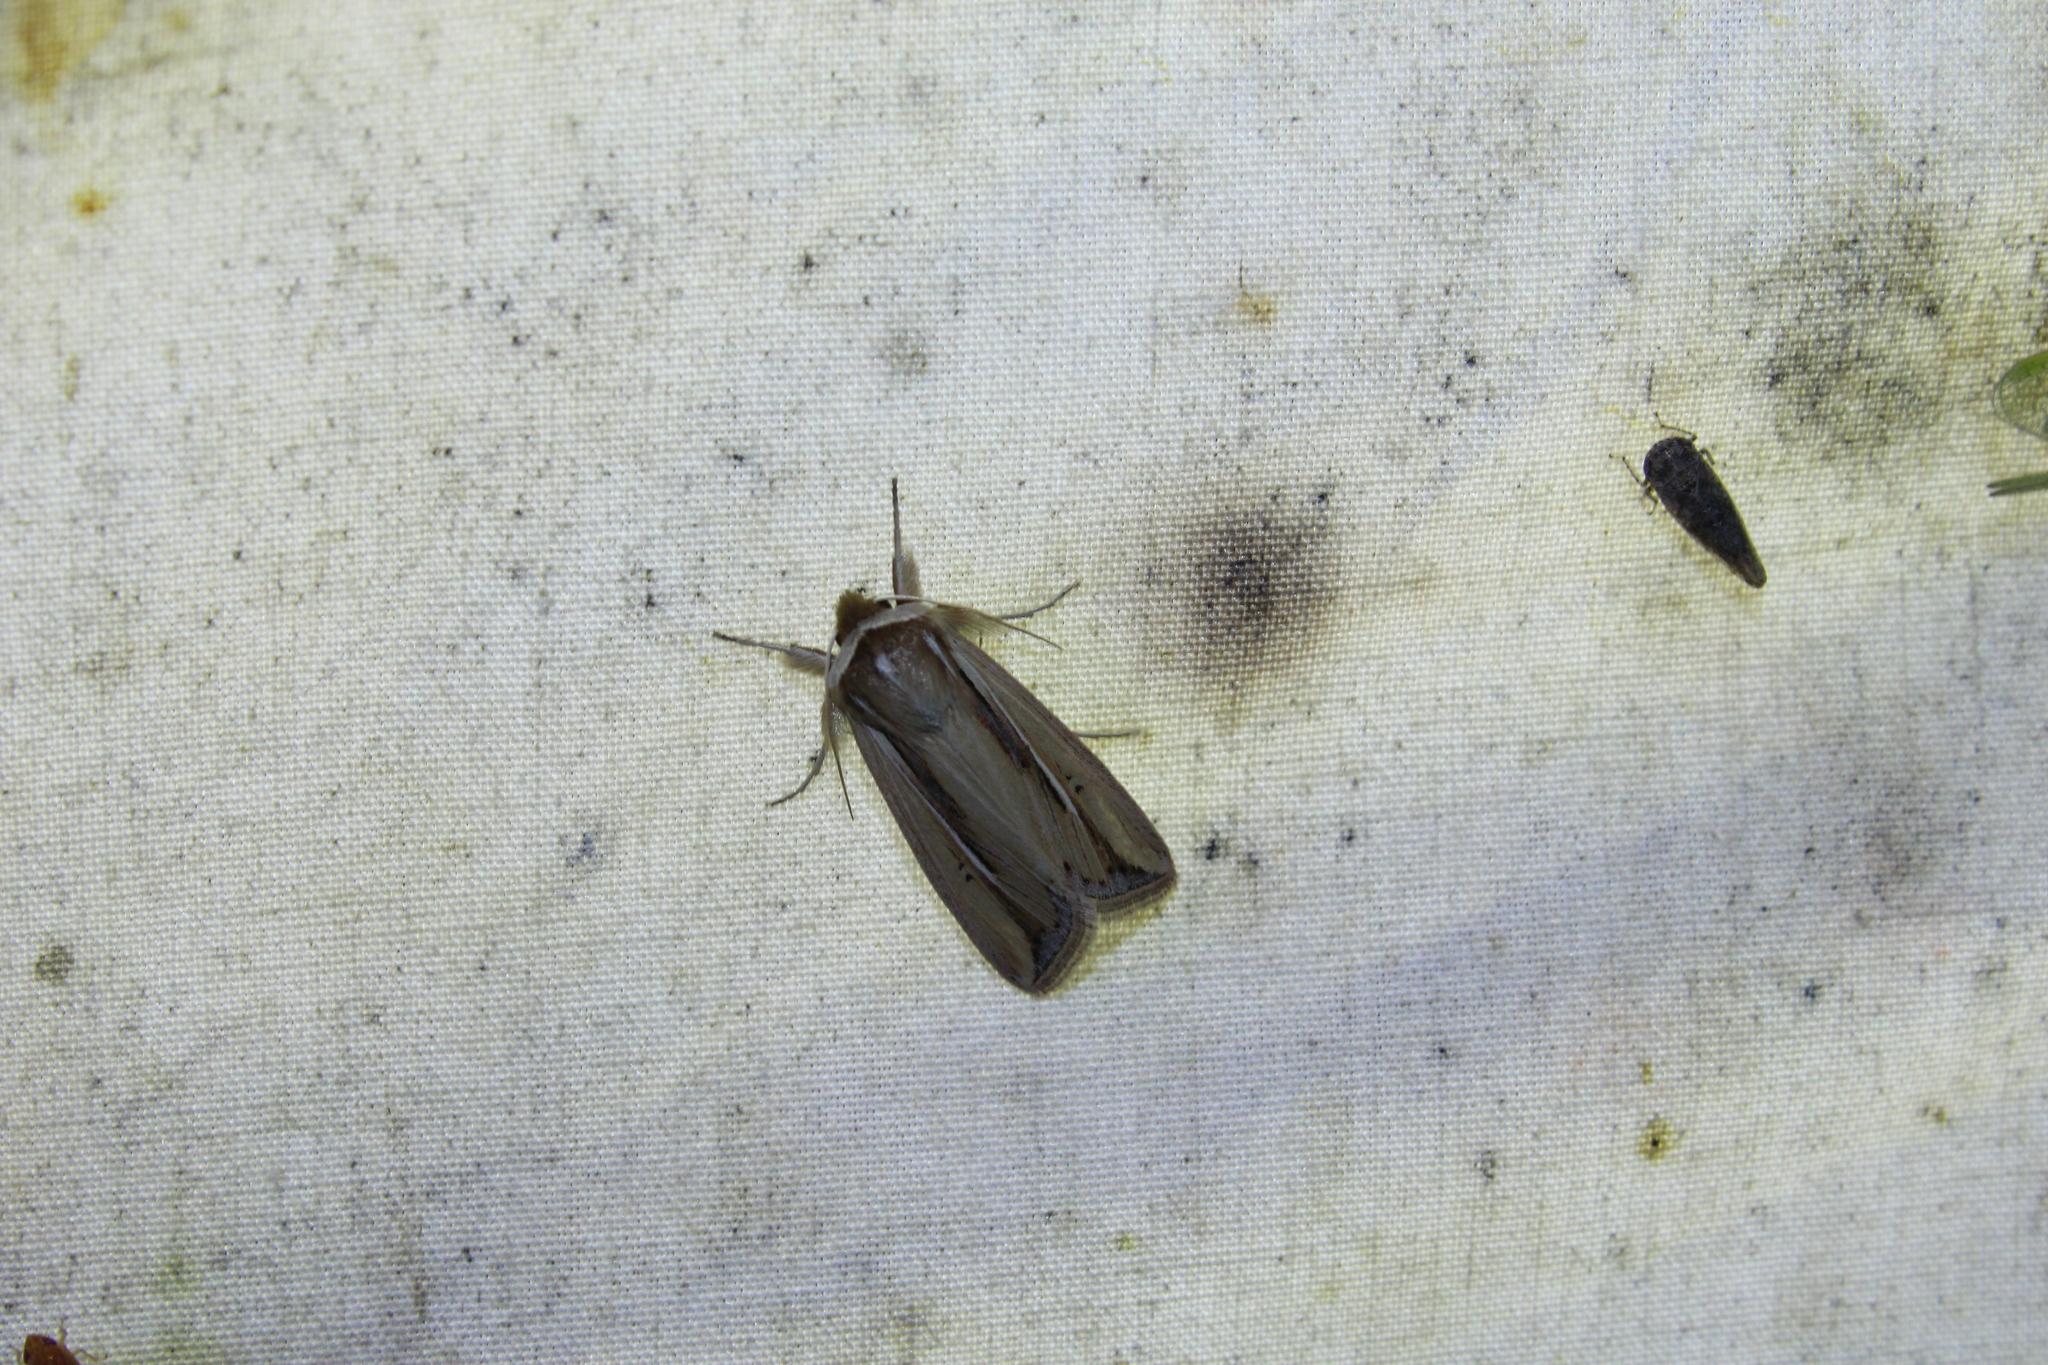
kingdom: Animalia
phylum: Arthropoda
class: Insecta
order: Lepidoptera
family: Noctuidae
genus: Dargida
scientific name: Dargida diffusa
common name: Wheat head armyworm
